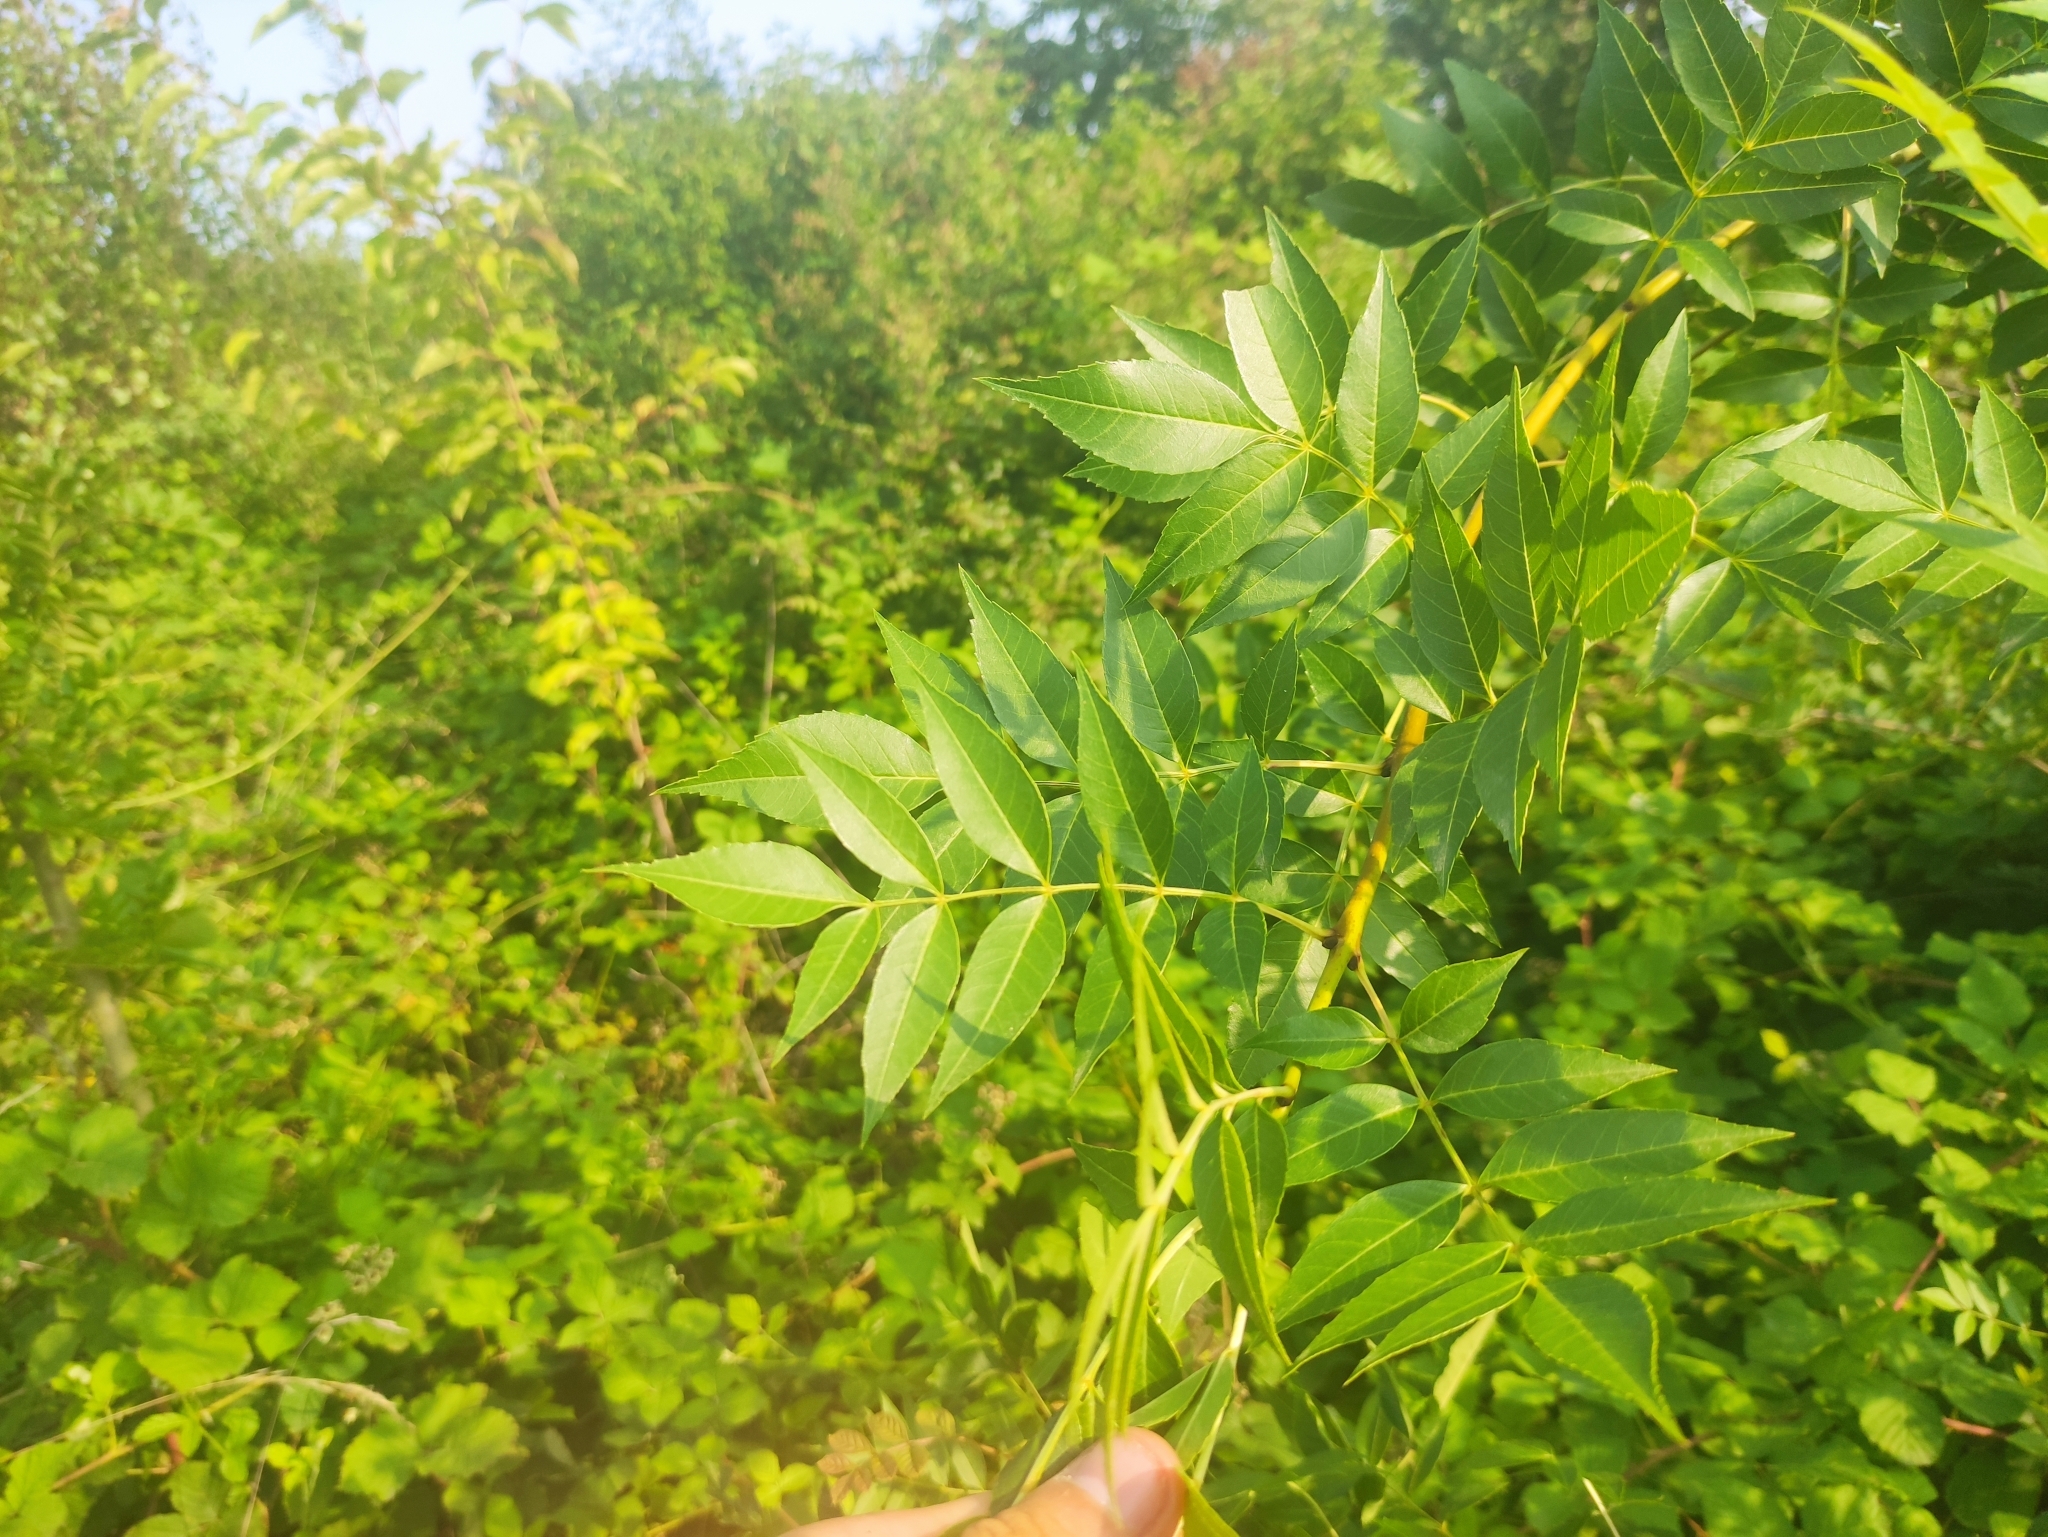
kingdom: Plantae
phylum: Tracheophyta
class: Magnoliopsida
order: Lamiales
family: Oleaceae
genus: Fraxinus
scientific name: Fraxinus excelsior
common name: European ash
